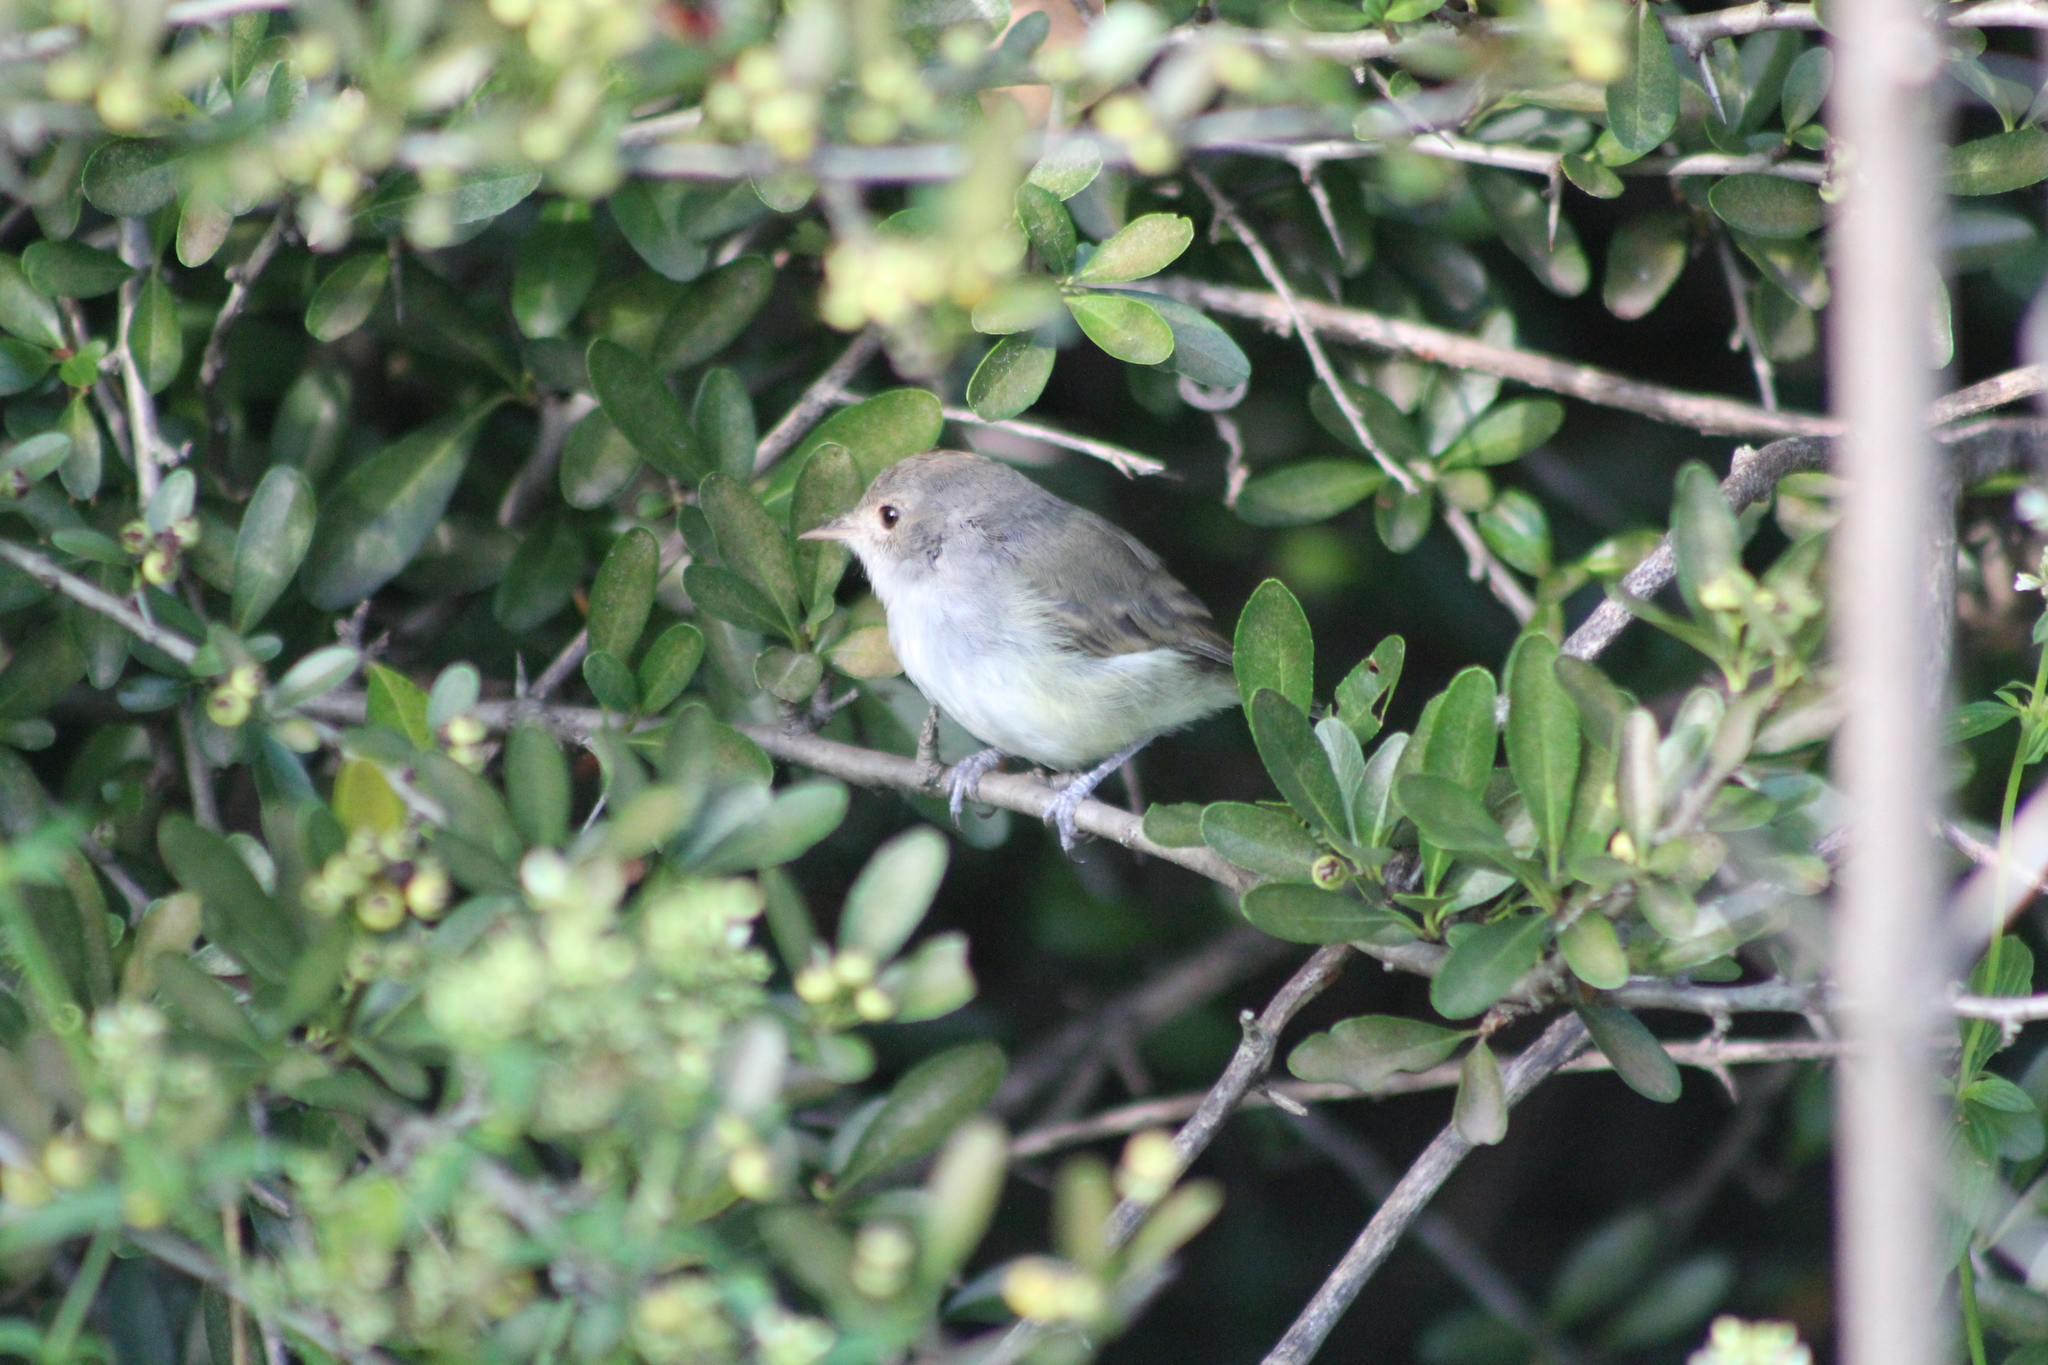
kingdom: Animalia
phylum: Chordata
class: Aves
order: Passeriformes
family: Tyrannidae
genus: Euscarthmus
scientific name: Euscarthmus meloryphus
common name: Tawny-crowned pygmy tyrant
